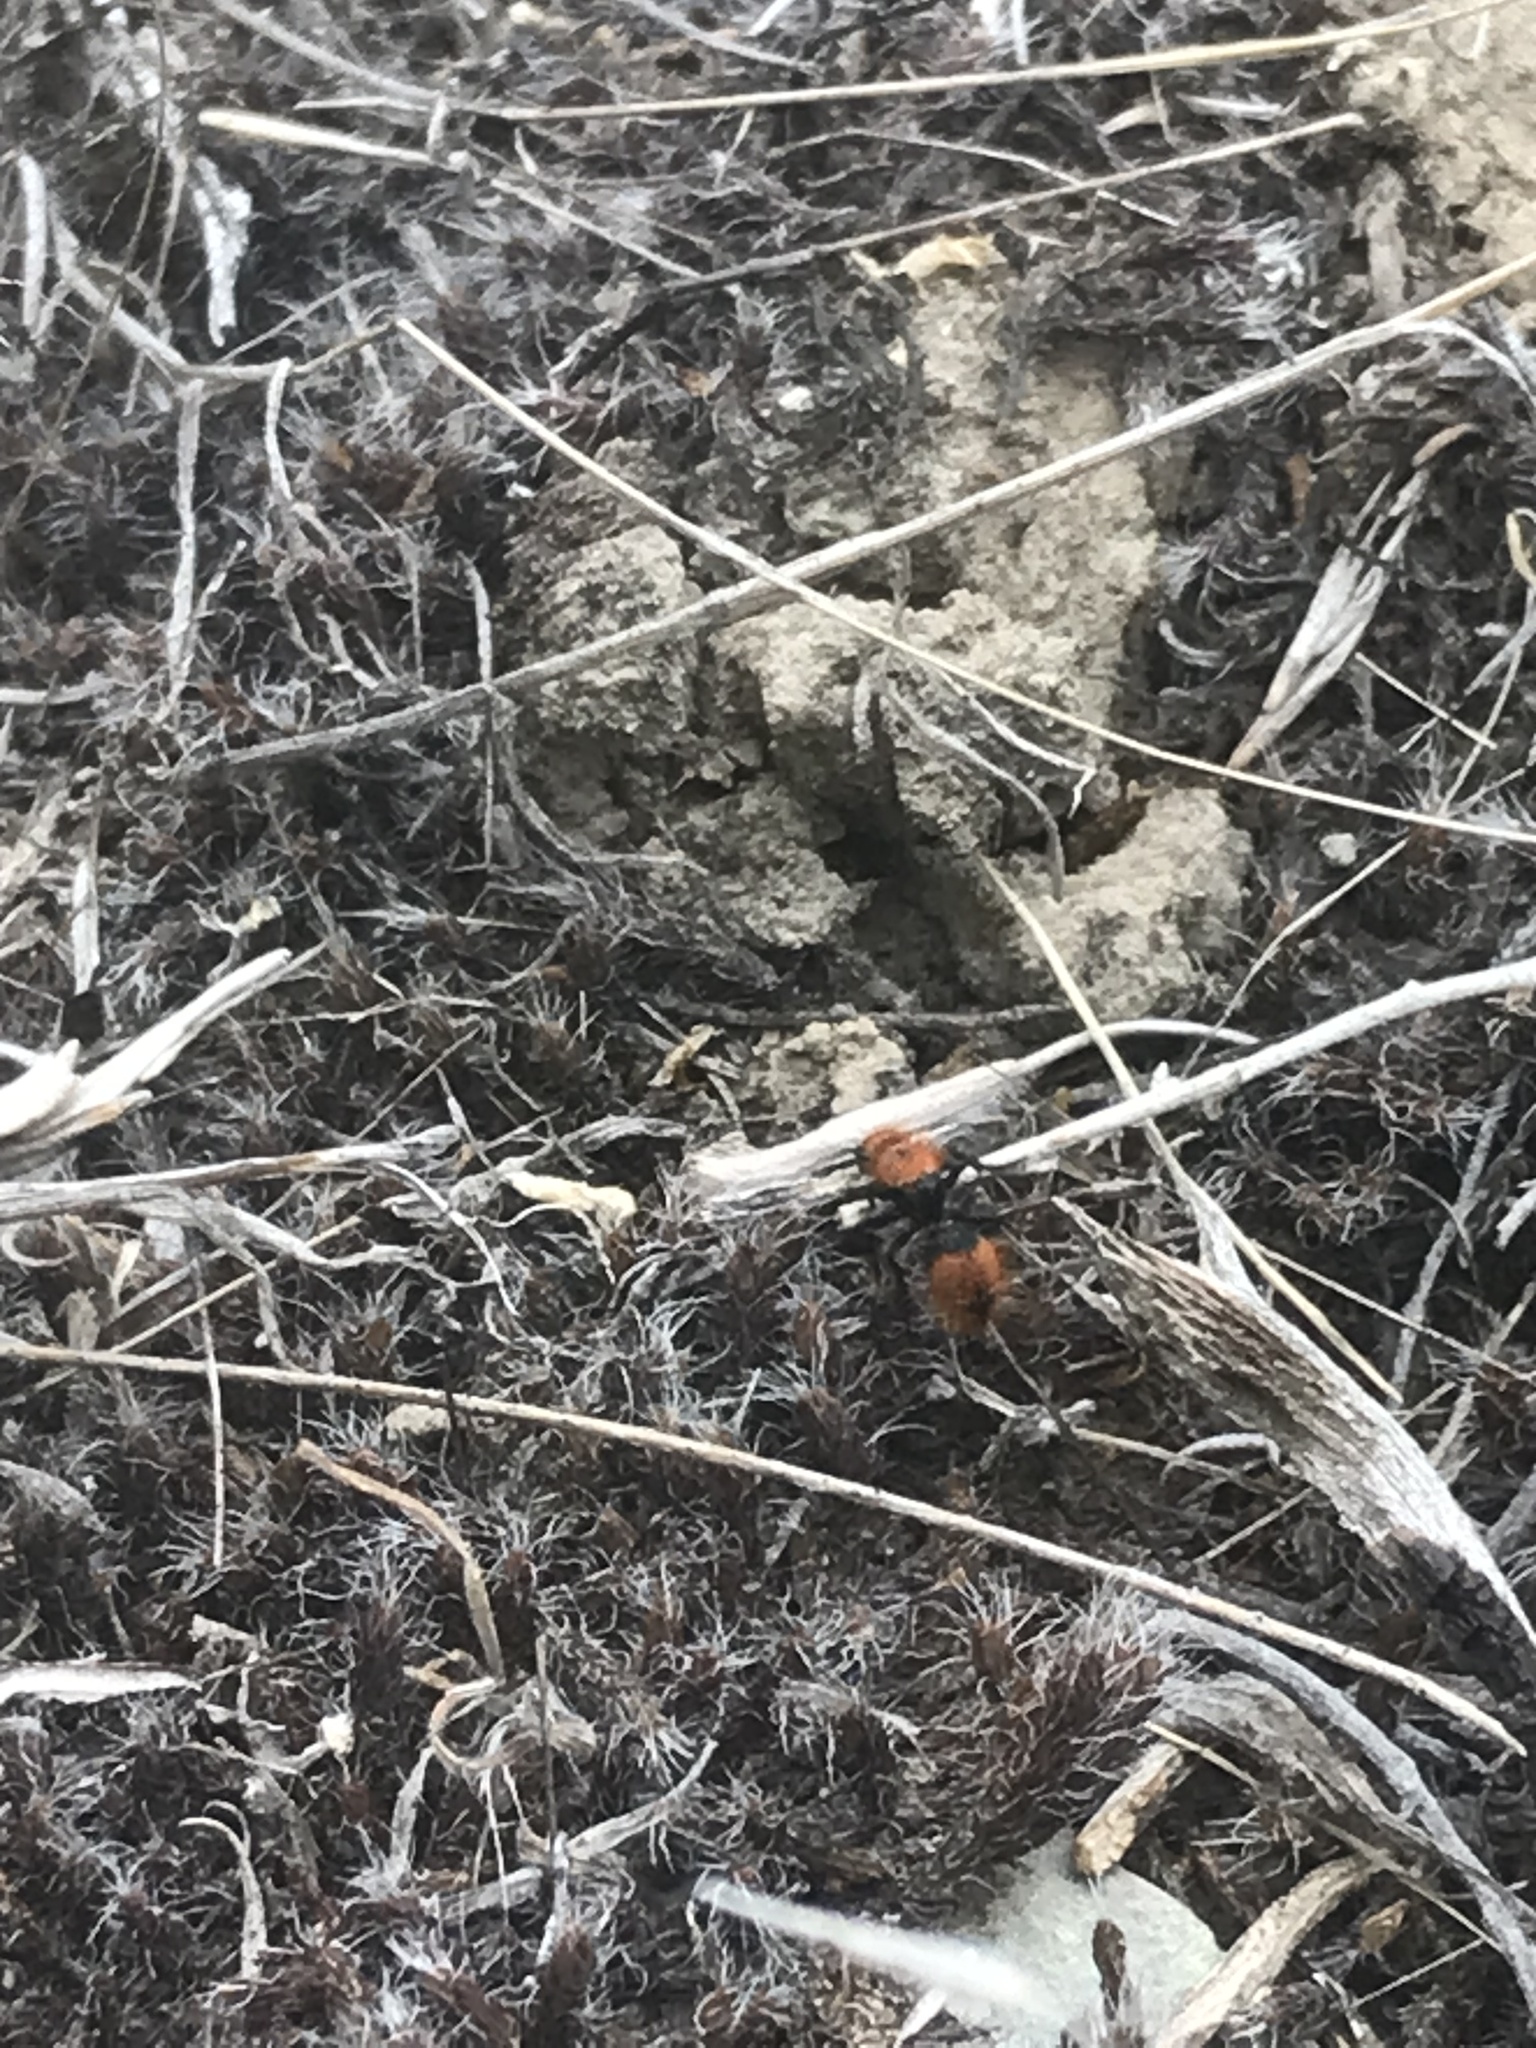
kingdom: Animalia
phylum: Arthropoda
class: Insecta
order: Hymenoptera
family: Mutillidae
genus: Dasymutilla
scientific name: Dasymutilla
